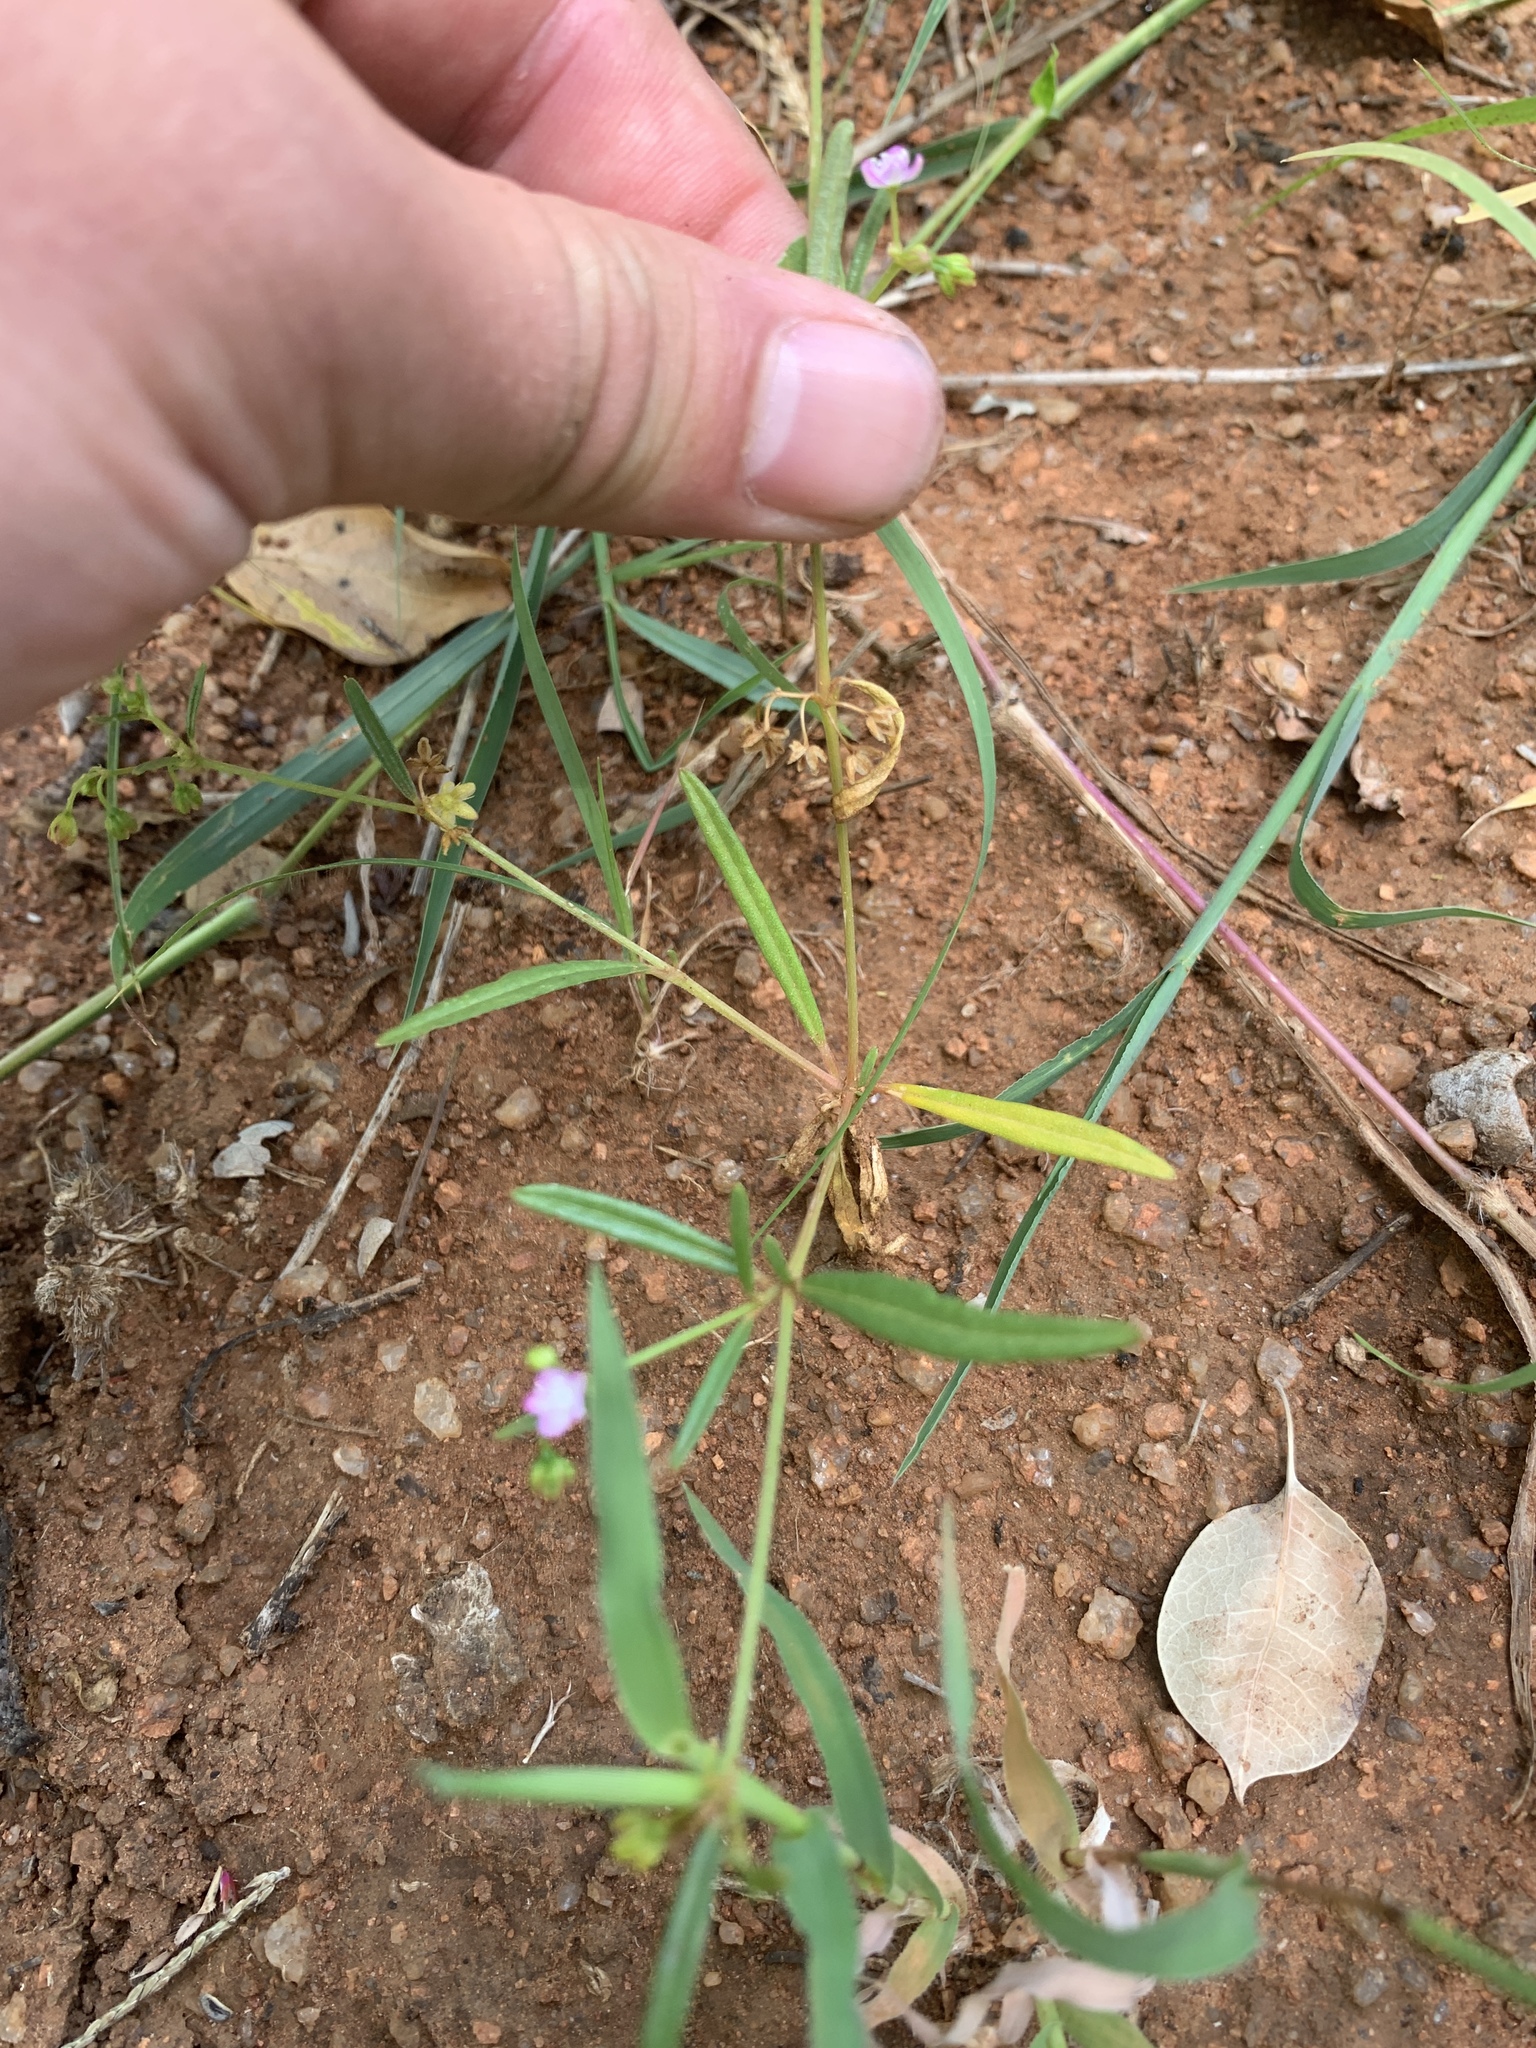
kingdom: Plantae
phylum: Tracheophyta
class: Magnoliopsida
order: Caryophyllales
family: Gisekiaceae
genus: Gisekia
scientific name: Gisekia pharnaceoides
